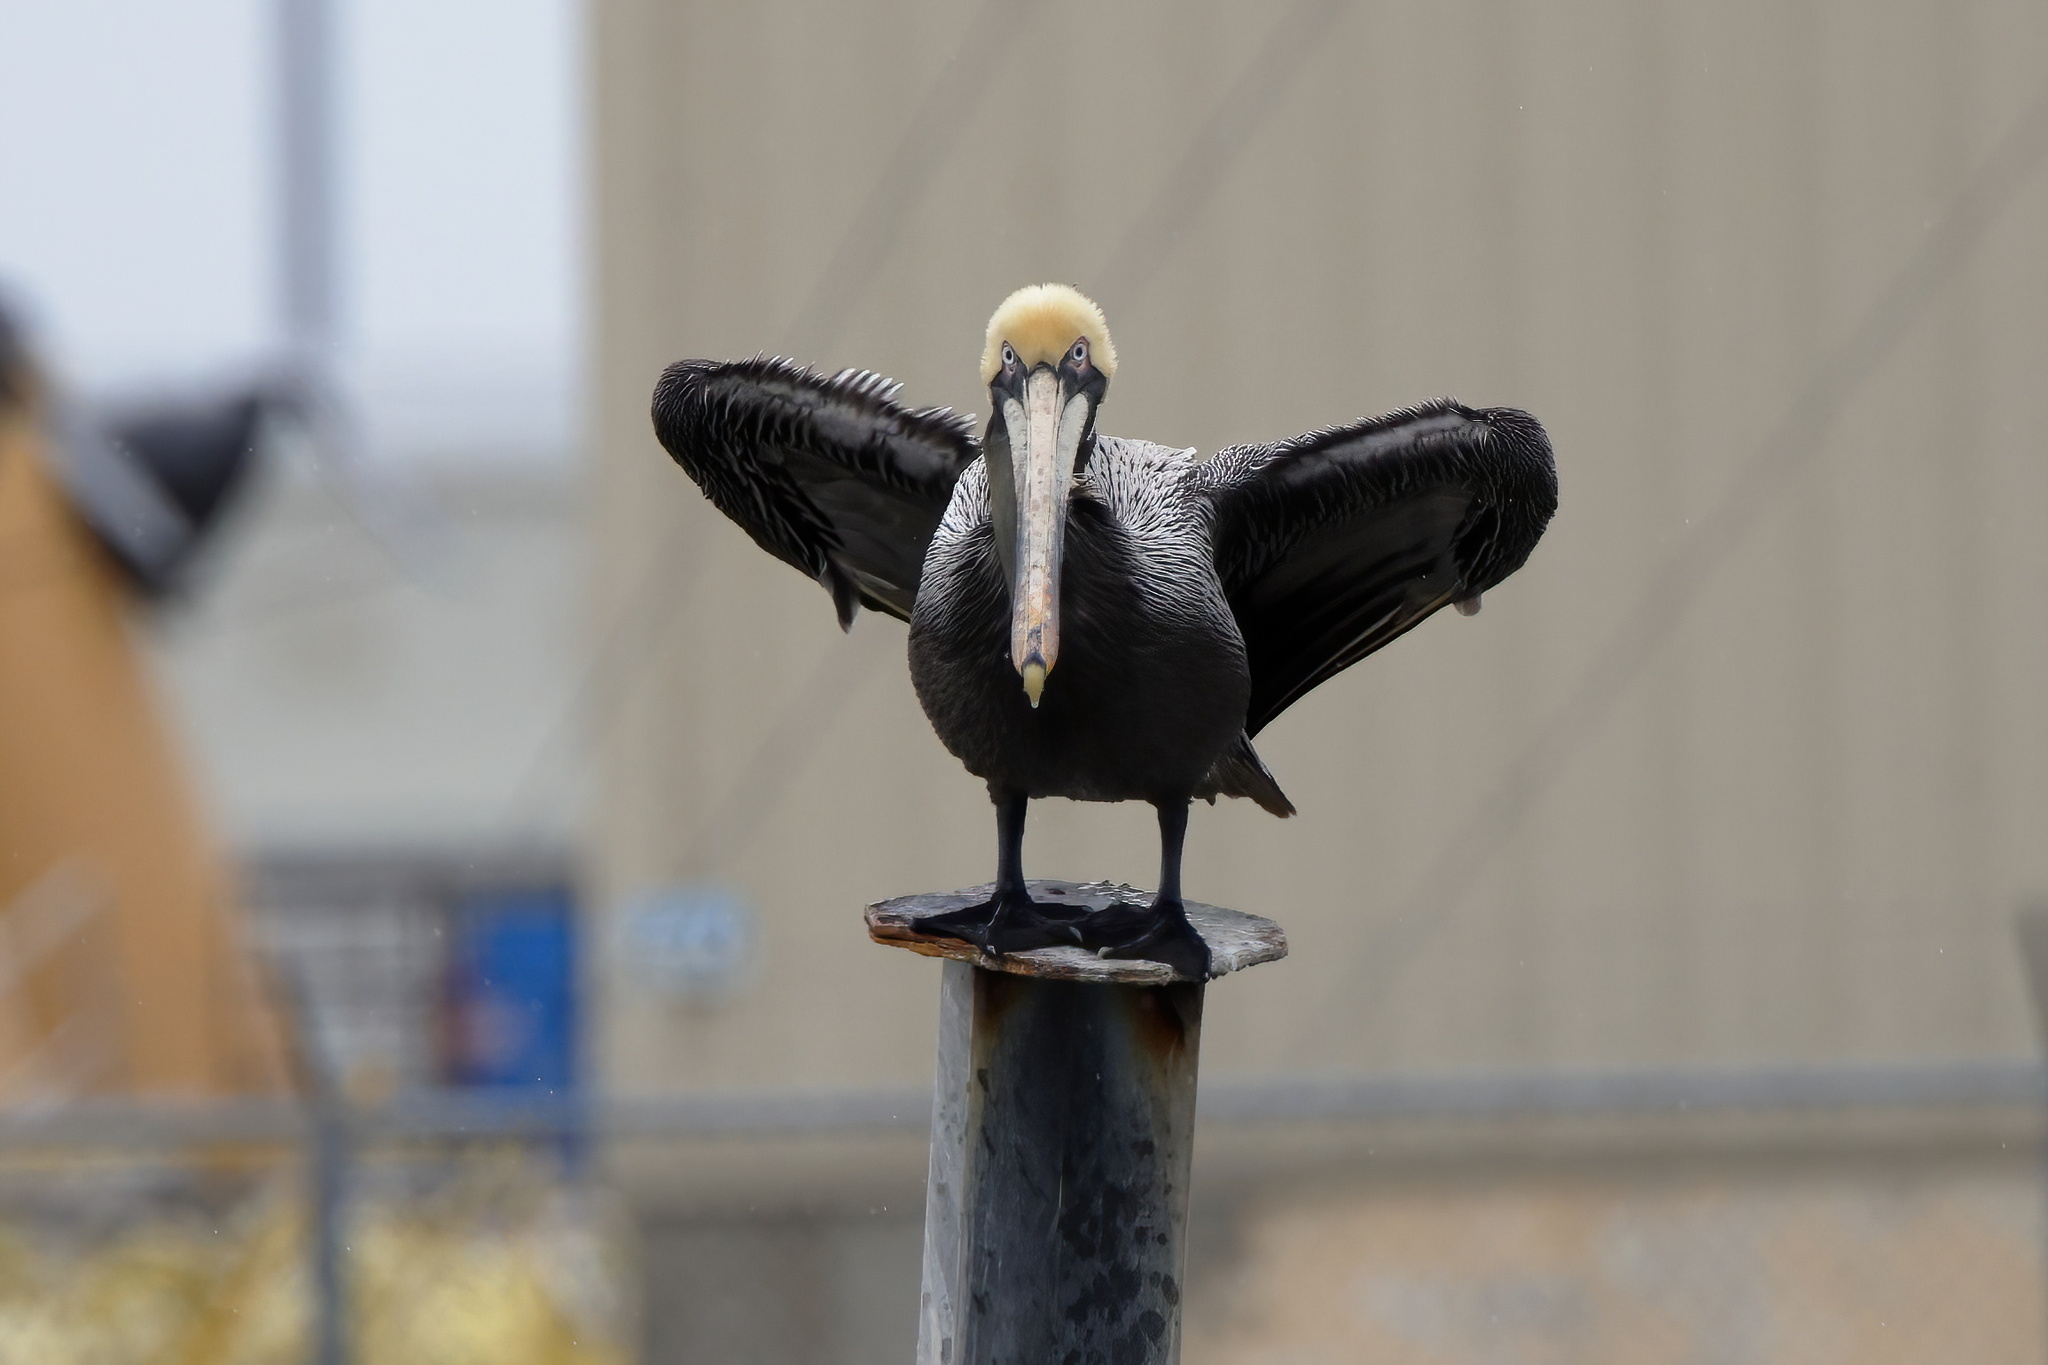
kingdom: Animalia
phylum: Chordata
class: Aves
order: Pelecaniformes
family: Pelecanidae
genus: Pelecanus
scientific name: Pelecanus occidentalis
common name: Brown pelican
